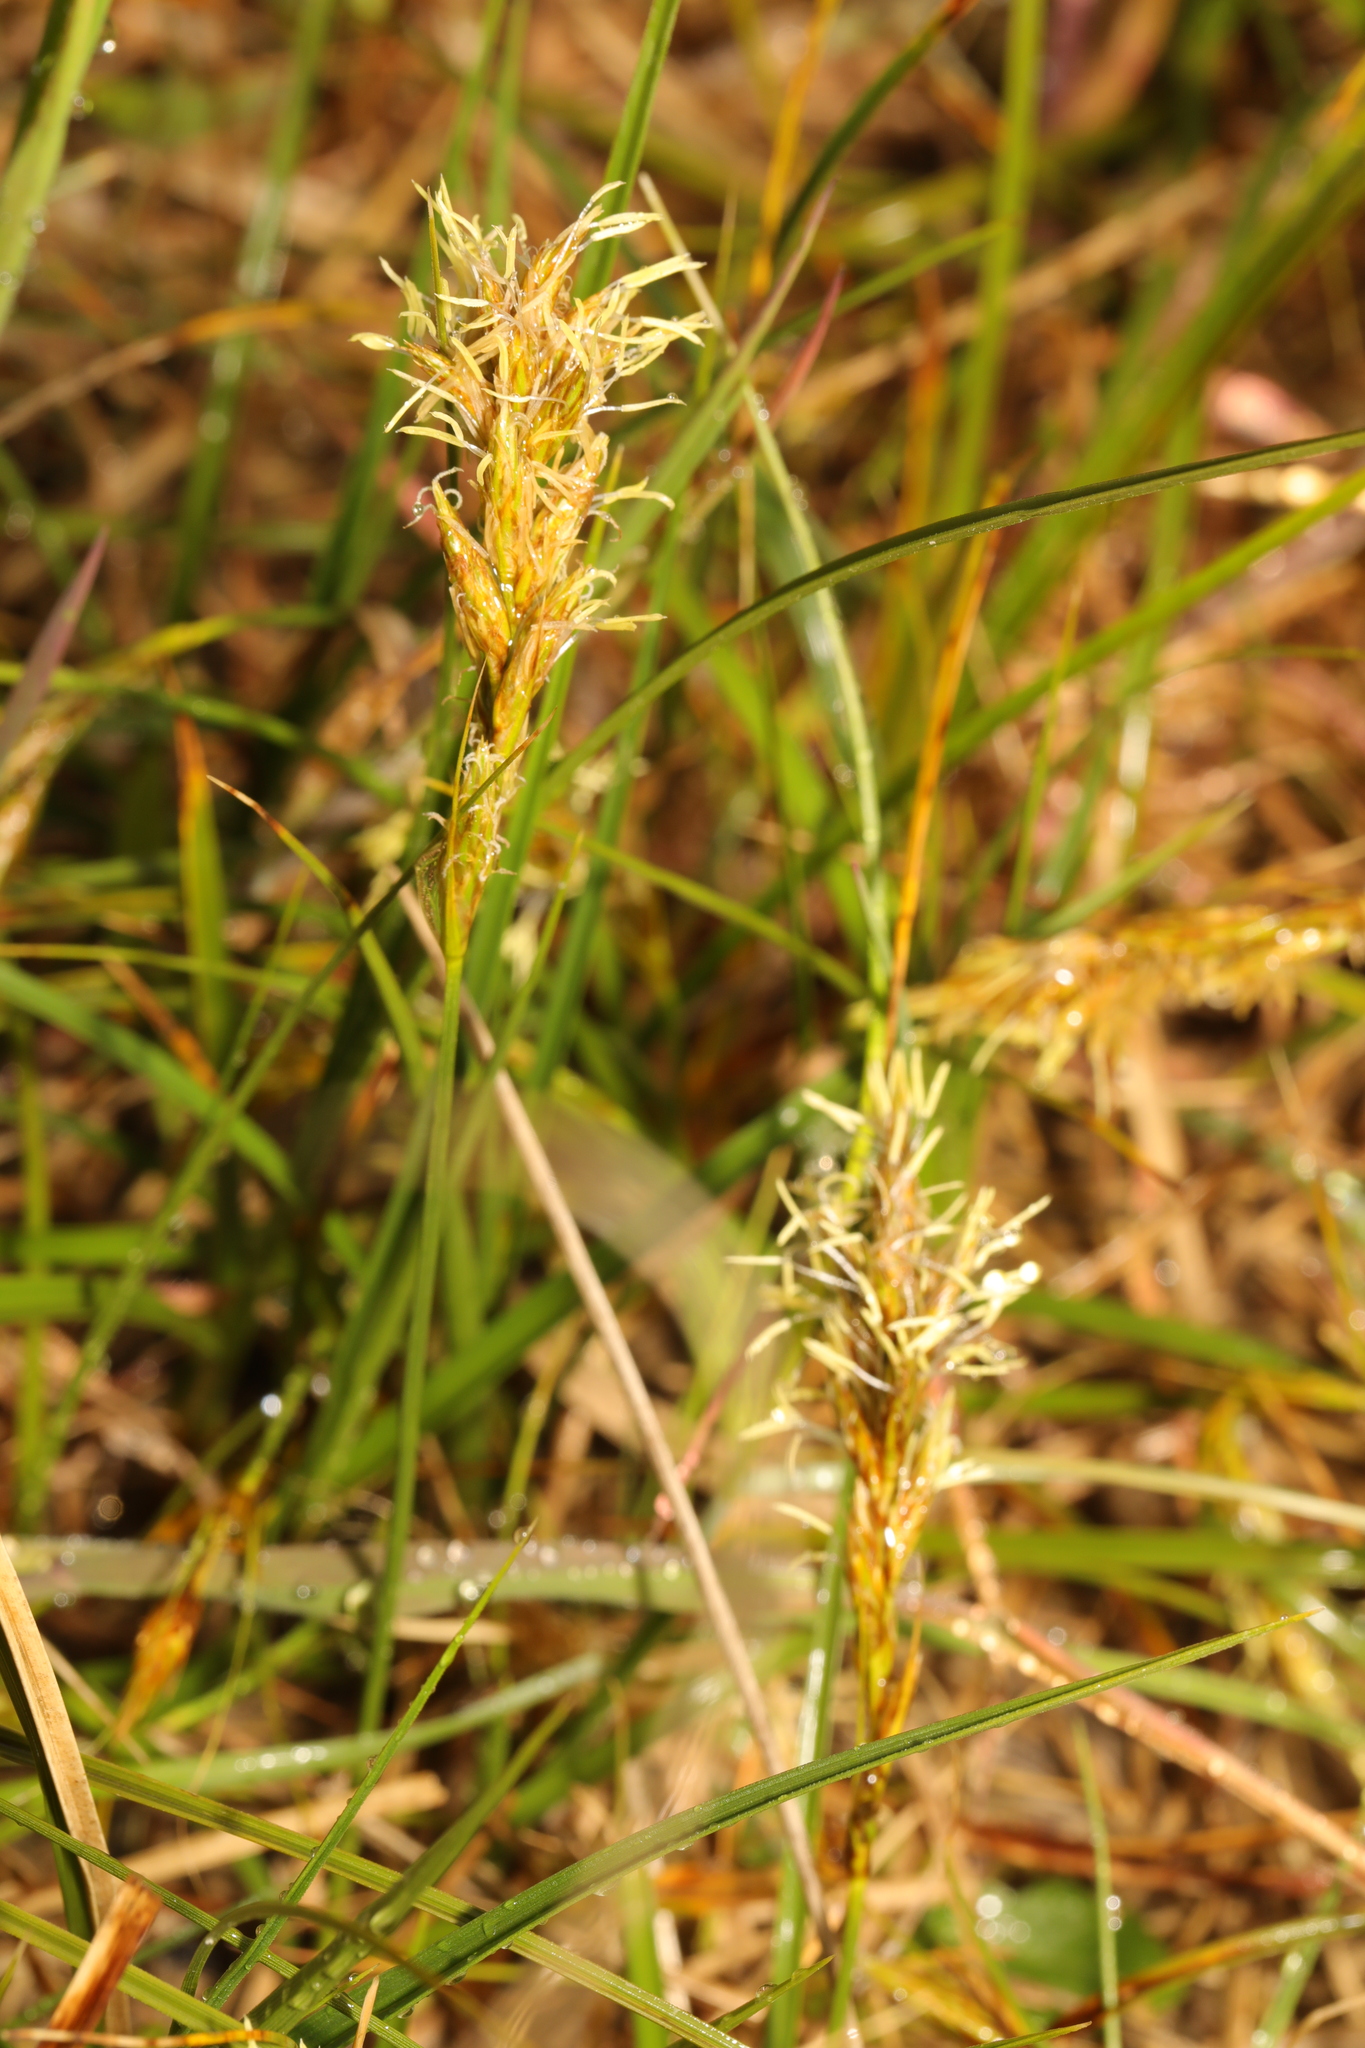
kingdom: Plantae
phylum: Tracheophyta
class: Liliopsida
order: Poales
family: Cyperaceae
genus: Carex
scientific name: Carex arenaria
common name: Sand sedge
